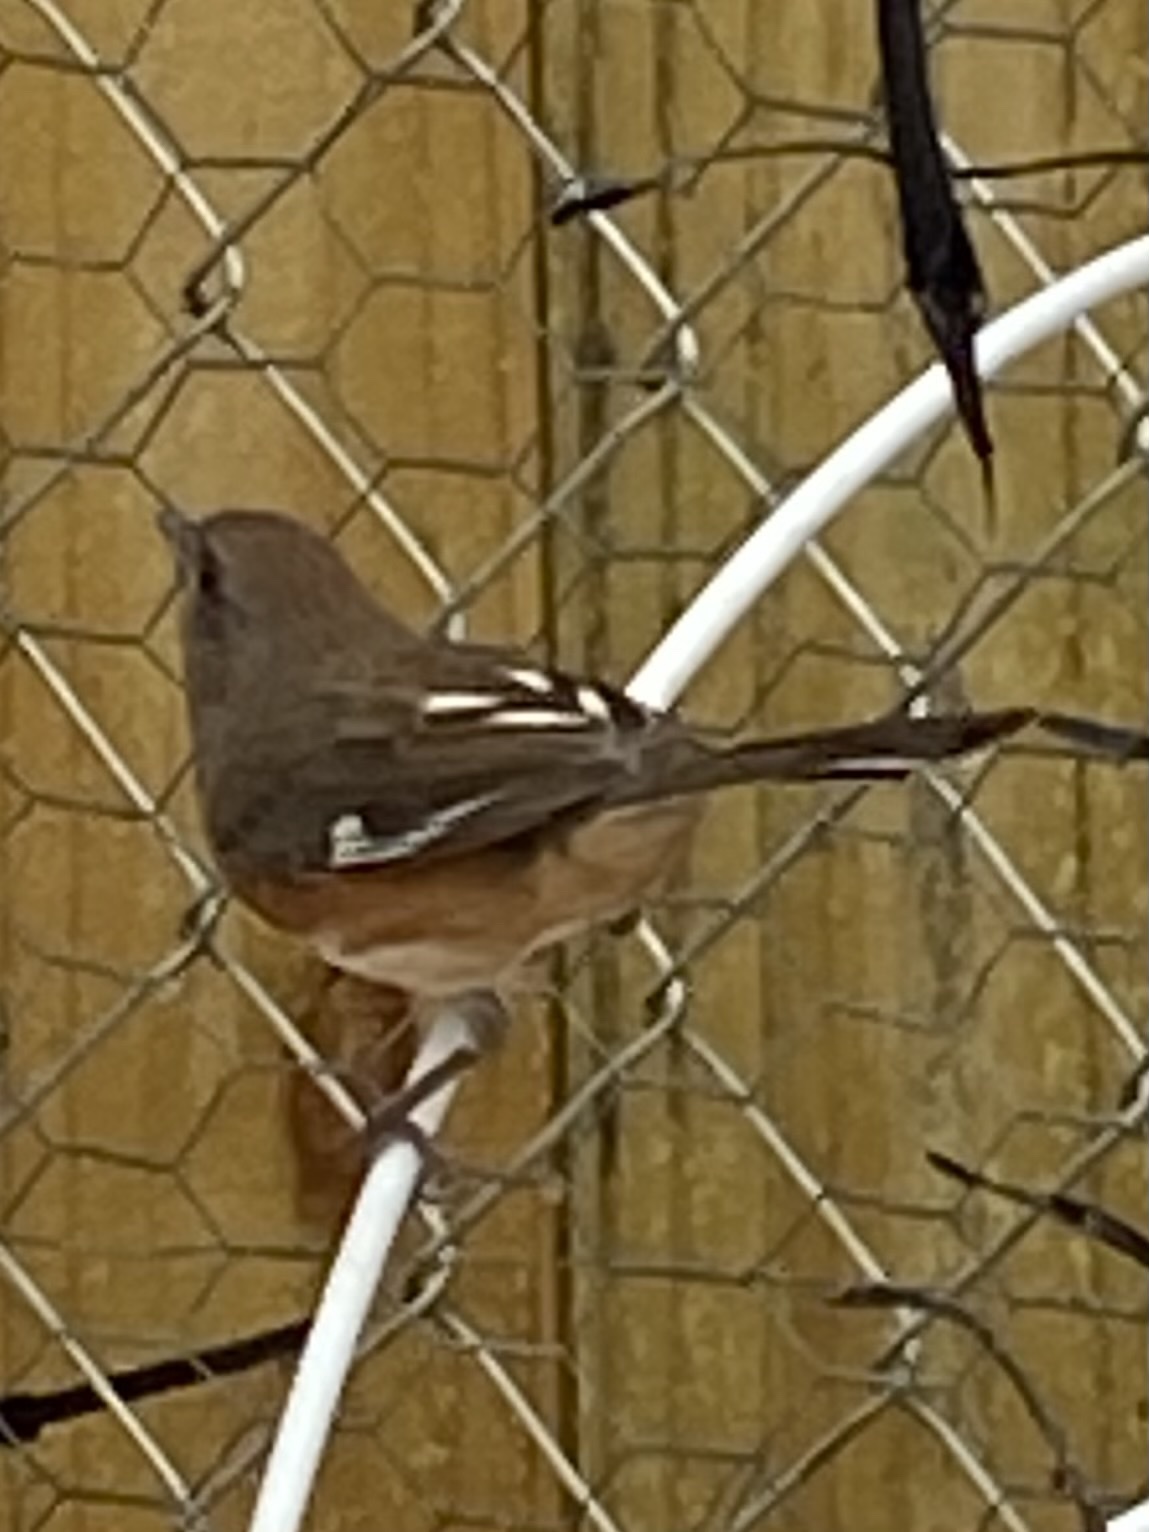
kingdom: Animalia
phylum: Chordata
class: Aves
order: Passeriformes
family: Passerellidae
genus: Pipilo
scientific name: Pipilo erythrophthalmus
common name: Eastern towhee
